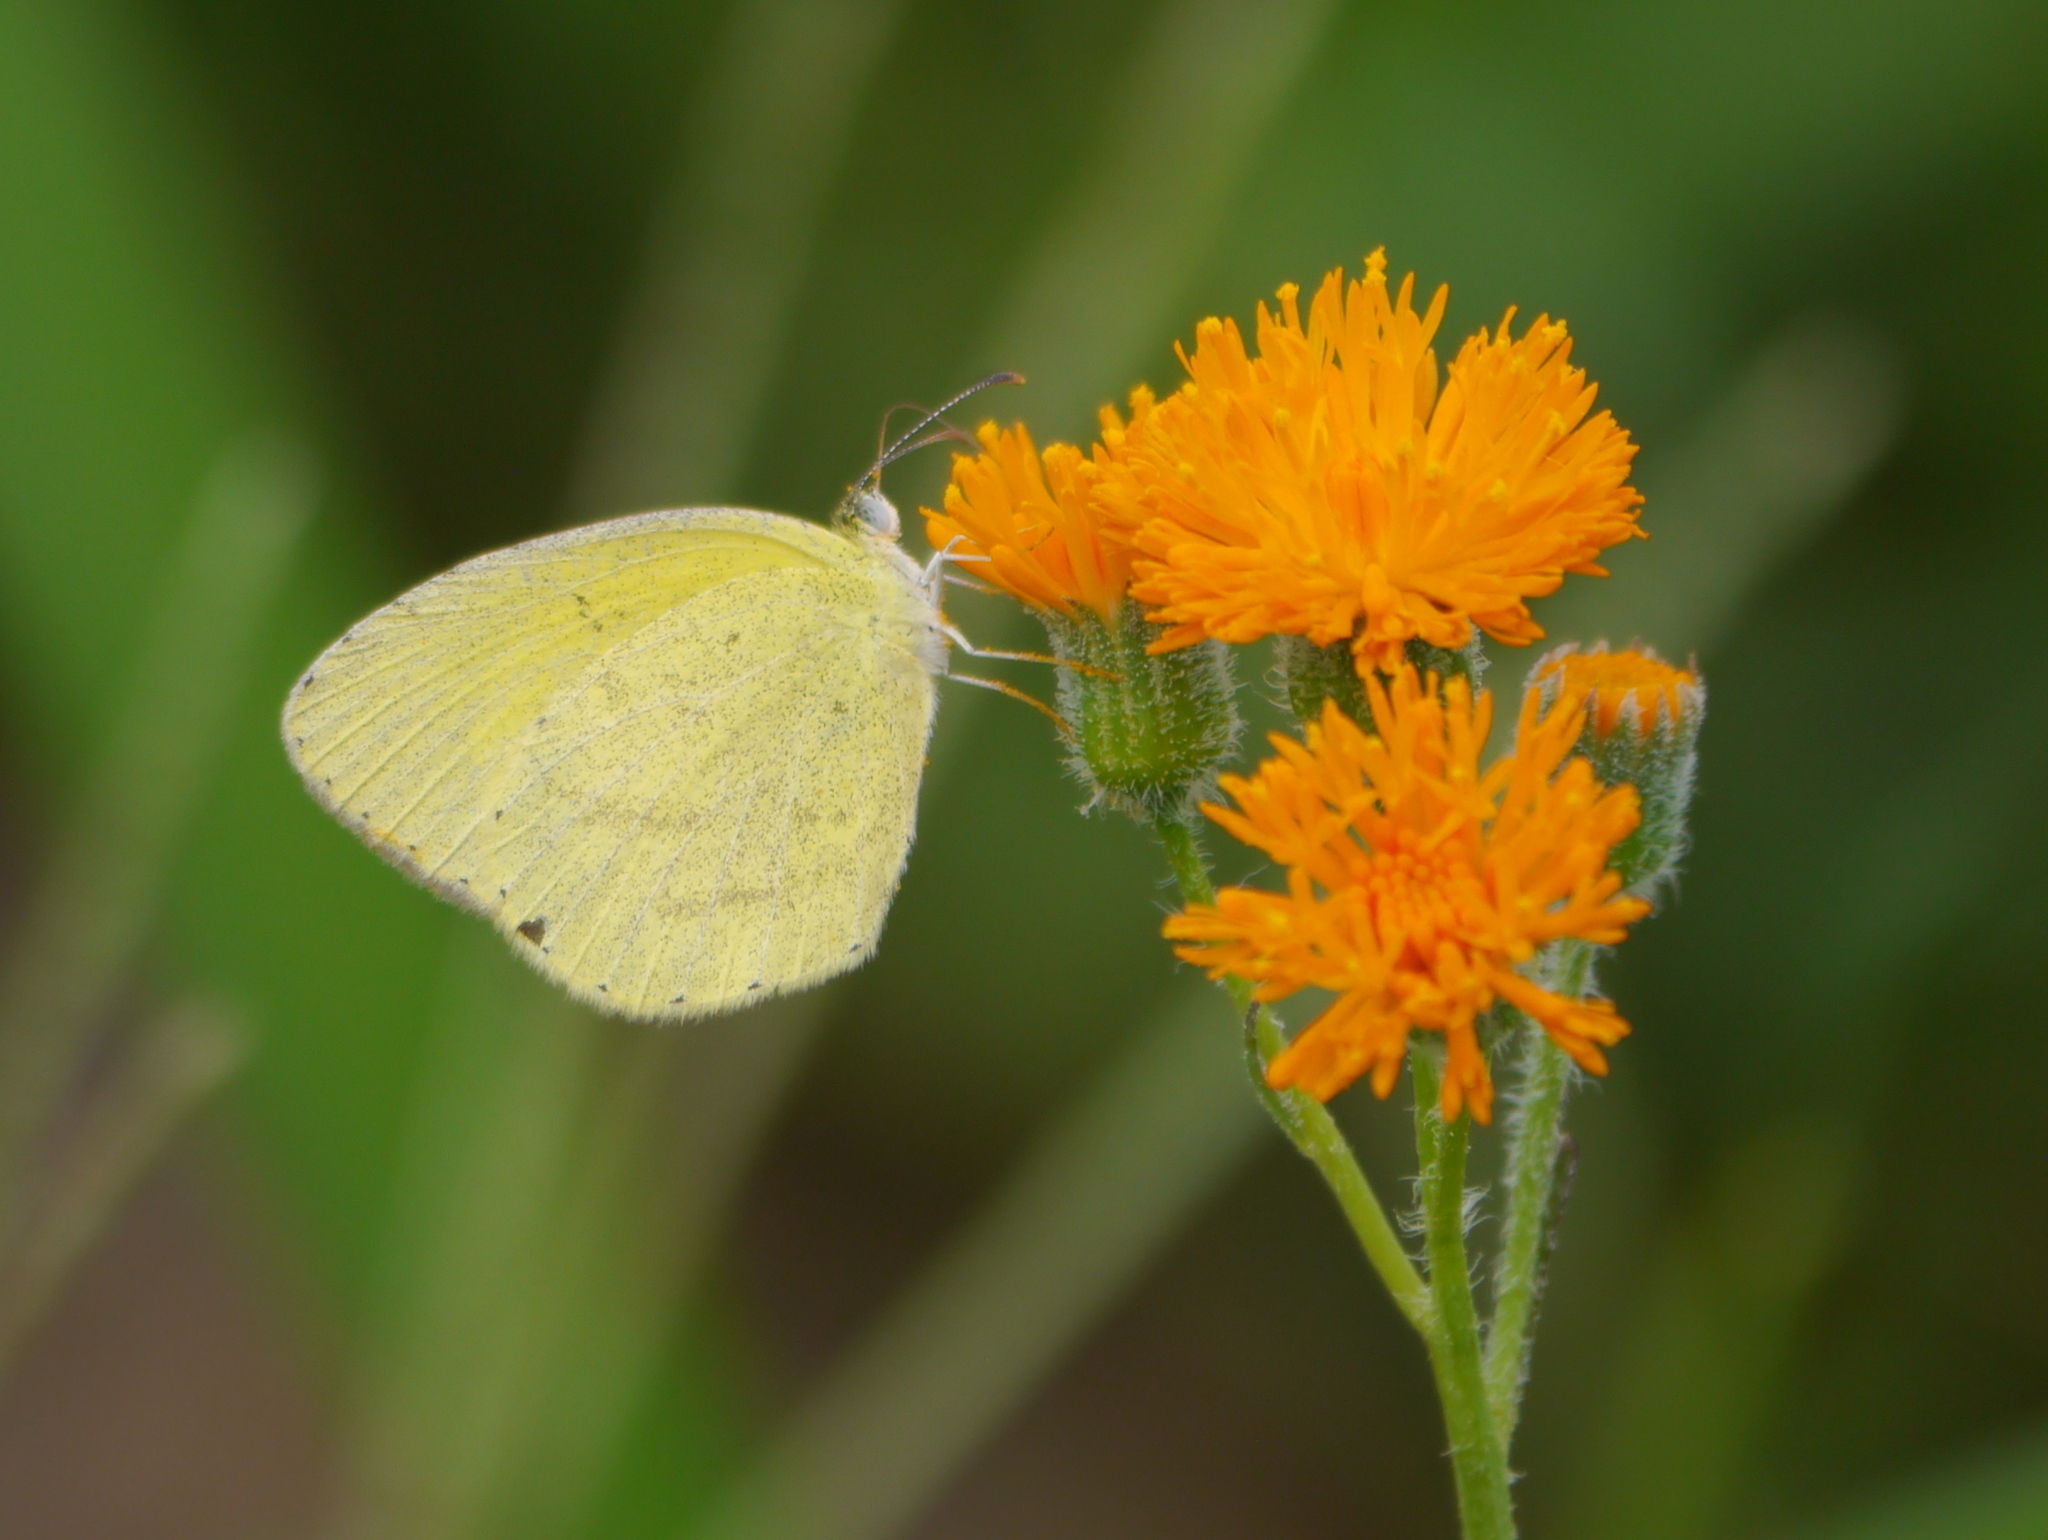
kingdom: Animalia
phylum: Arthropoda
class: Insecta
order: Lepidoptera
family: Pieridae
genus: Eurema
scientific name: Eurema brigitta
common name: Small grass yellow
